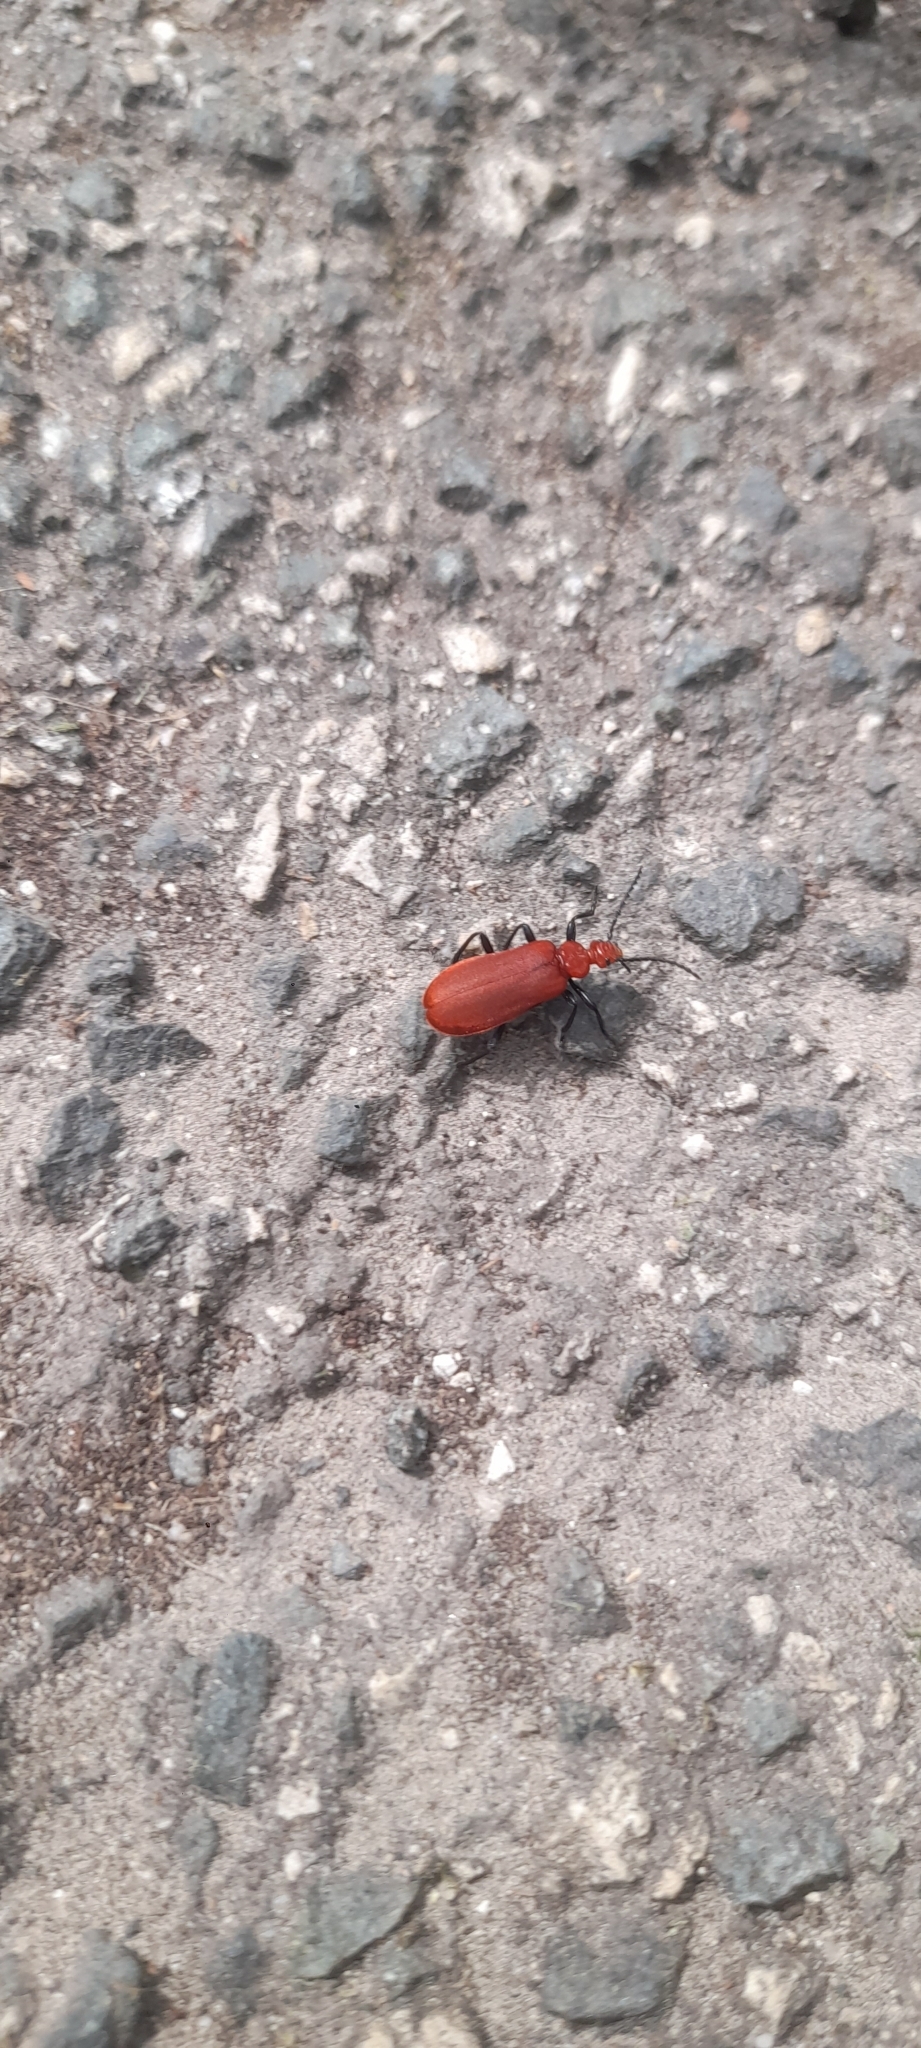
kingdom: Animalia
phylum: Arthropoda
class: Insecta
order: Coleoptera
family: Pyrochroidae
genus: Pyrochroa
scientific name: Pyrochroa serraticornis
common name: Red-headed cardinal beetle
